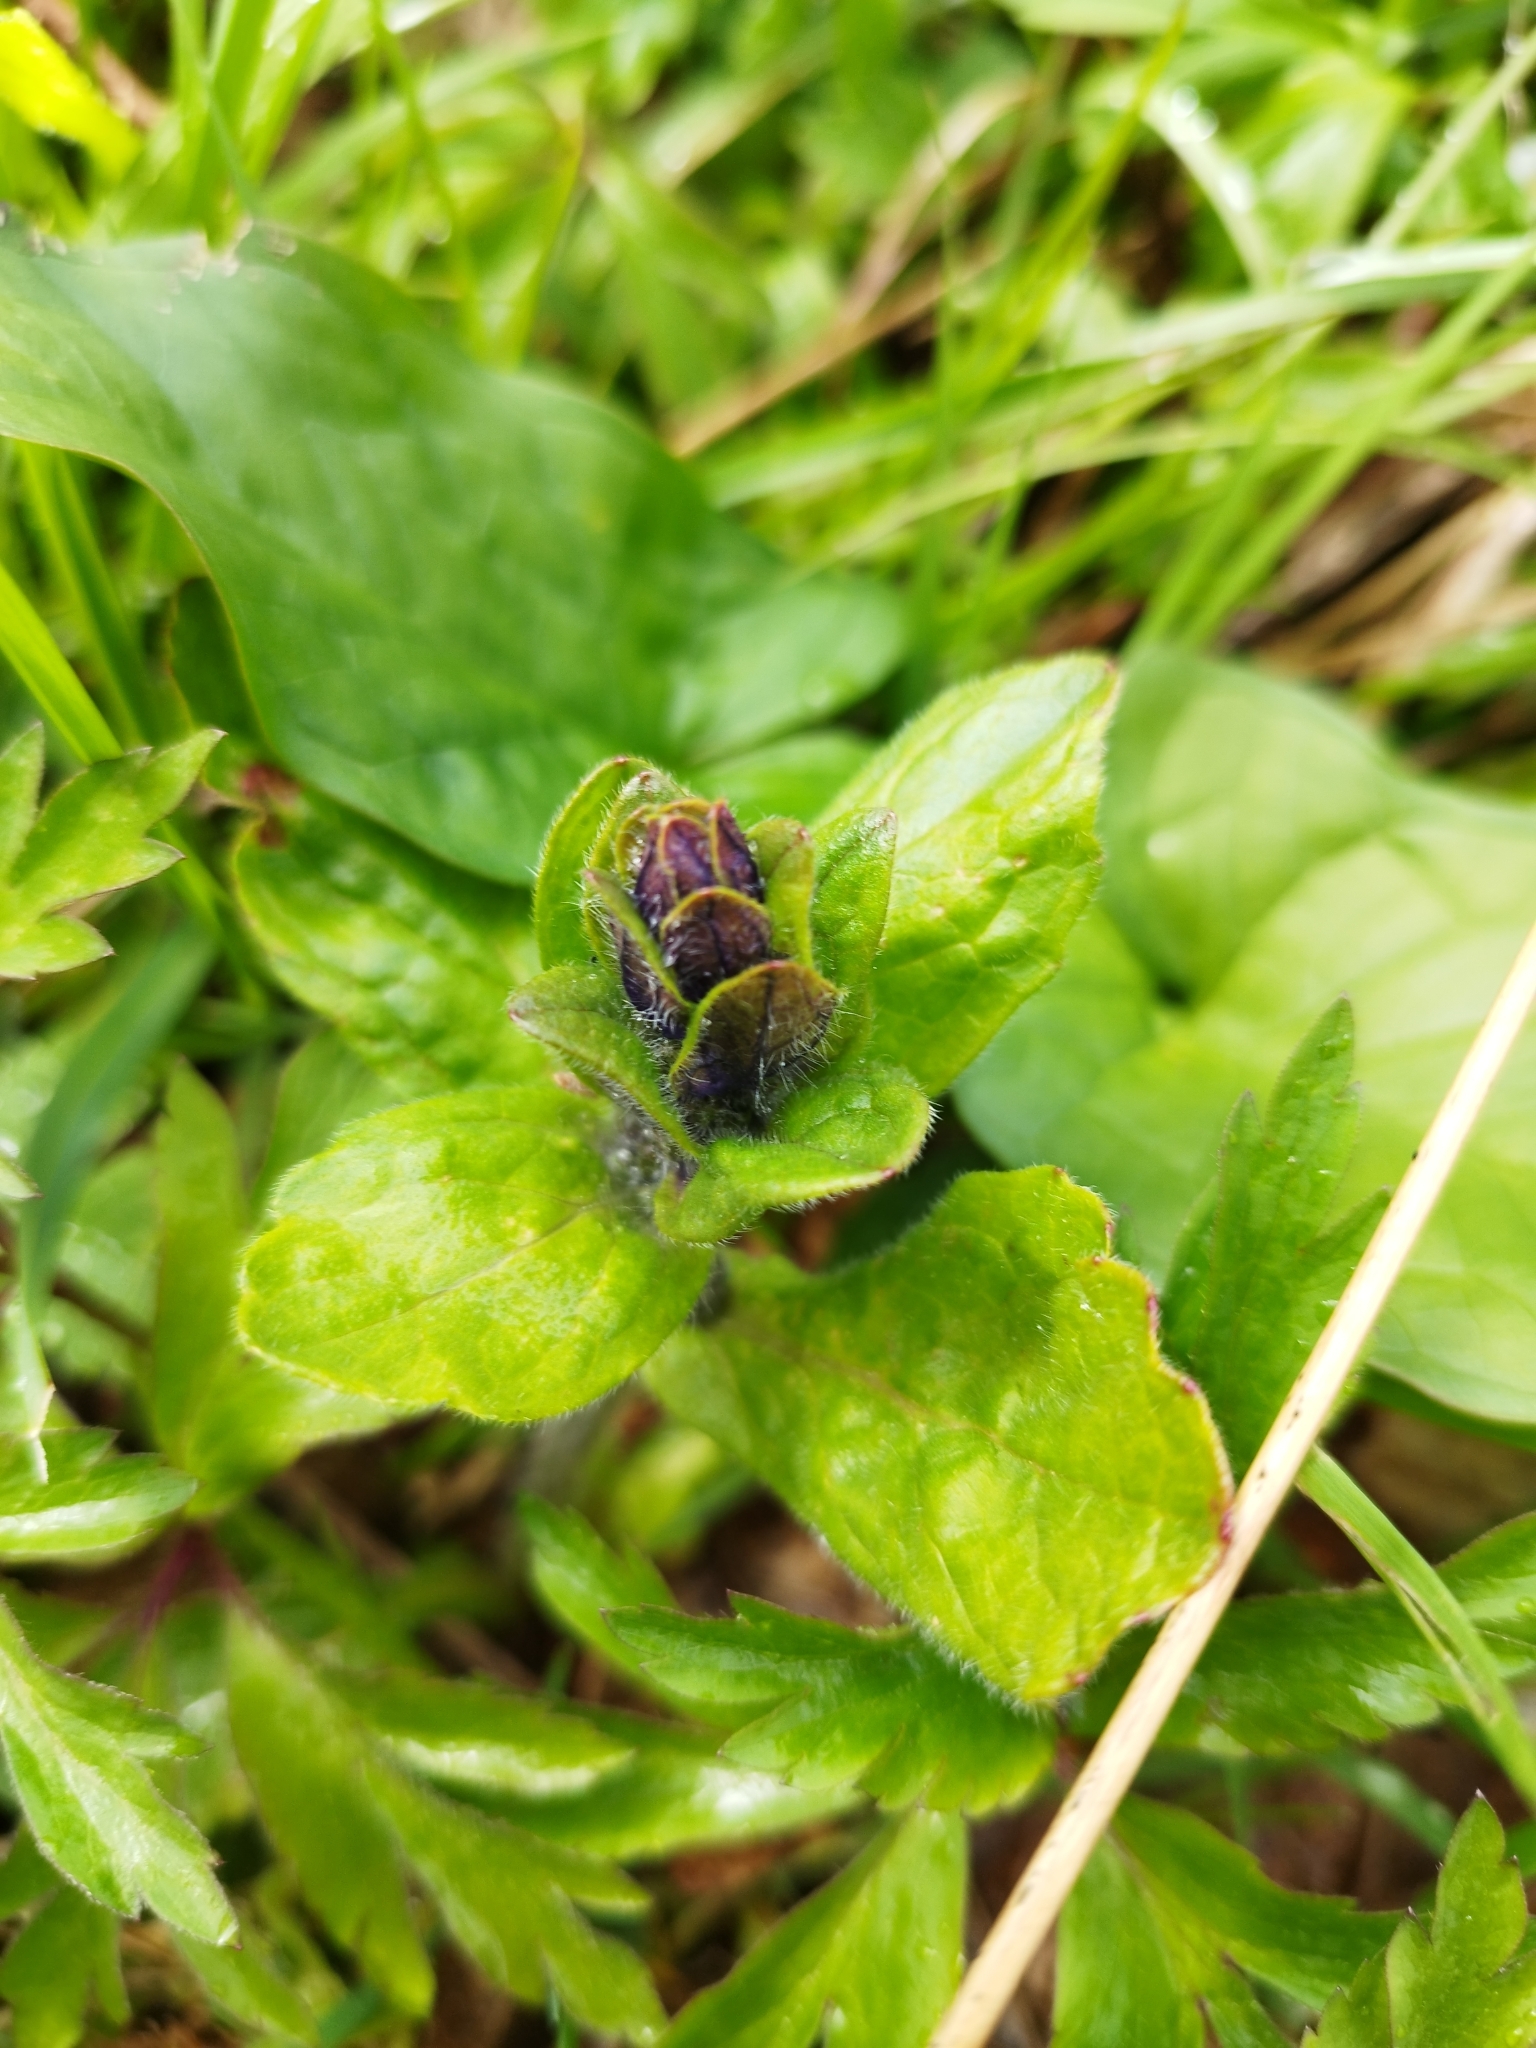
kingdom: Plantae
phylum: Tracheophyta
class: Magnoliopsida
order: Lamiales
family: Lamiaceae
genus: Ajuga
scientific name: Ajuga reptans
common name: Bugle
